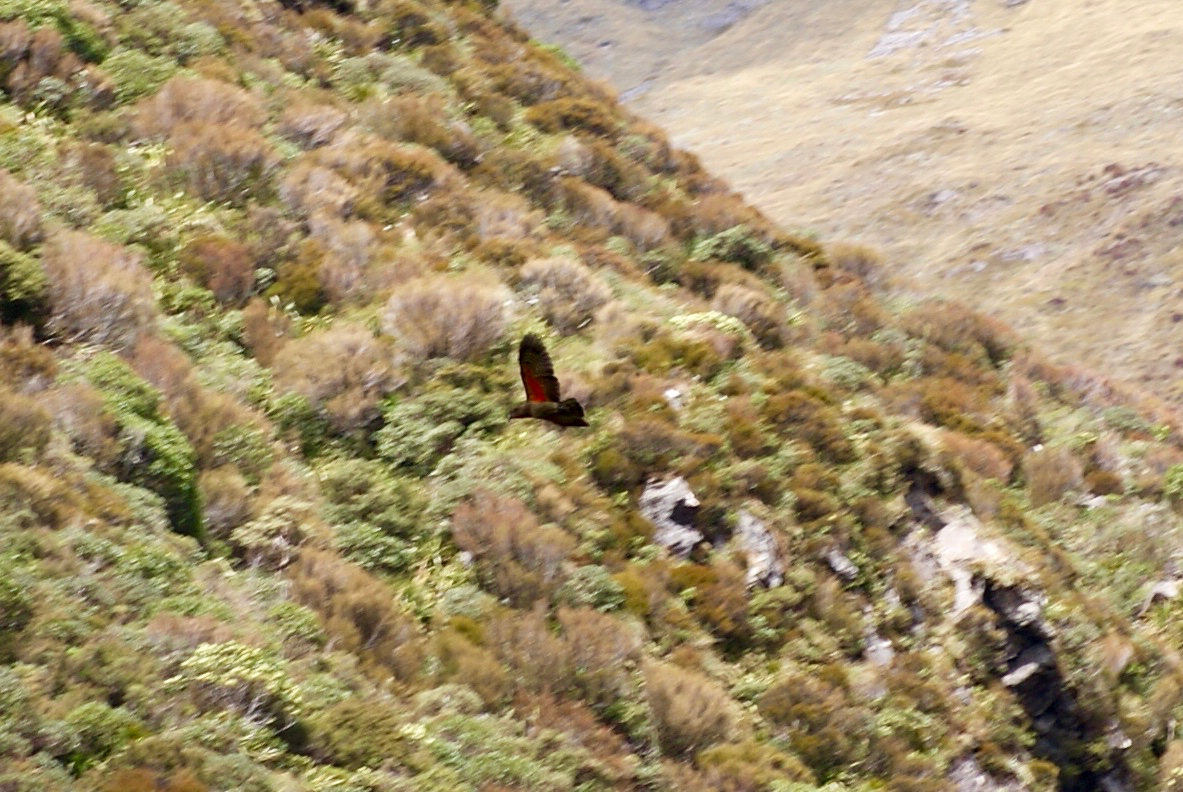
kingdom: Animalia
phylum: Chordata
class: Aves
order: Psittaciformes
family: Psittacidae
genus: Nestor
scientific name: Nestor notabilis
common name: Kea
